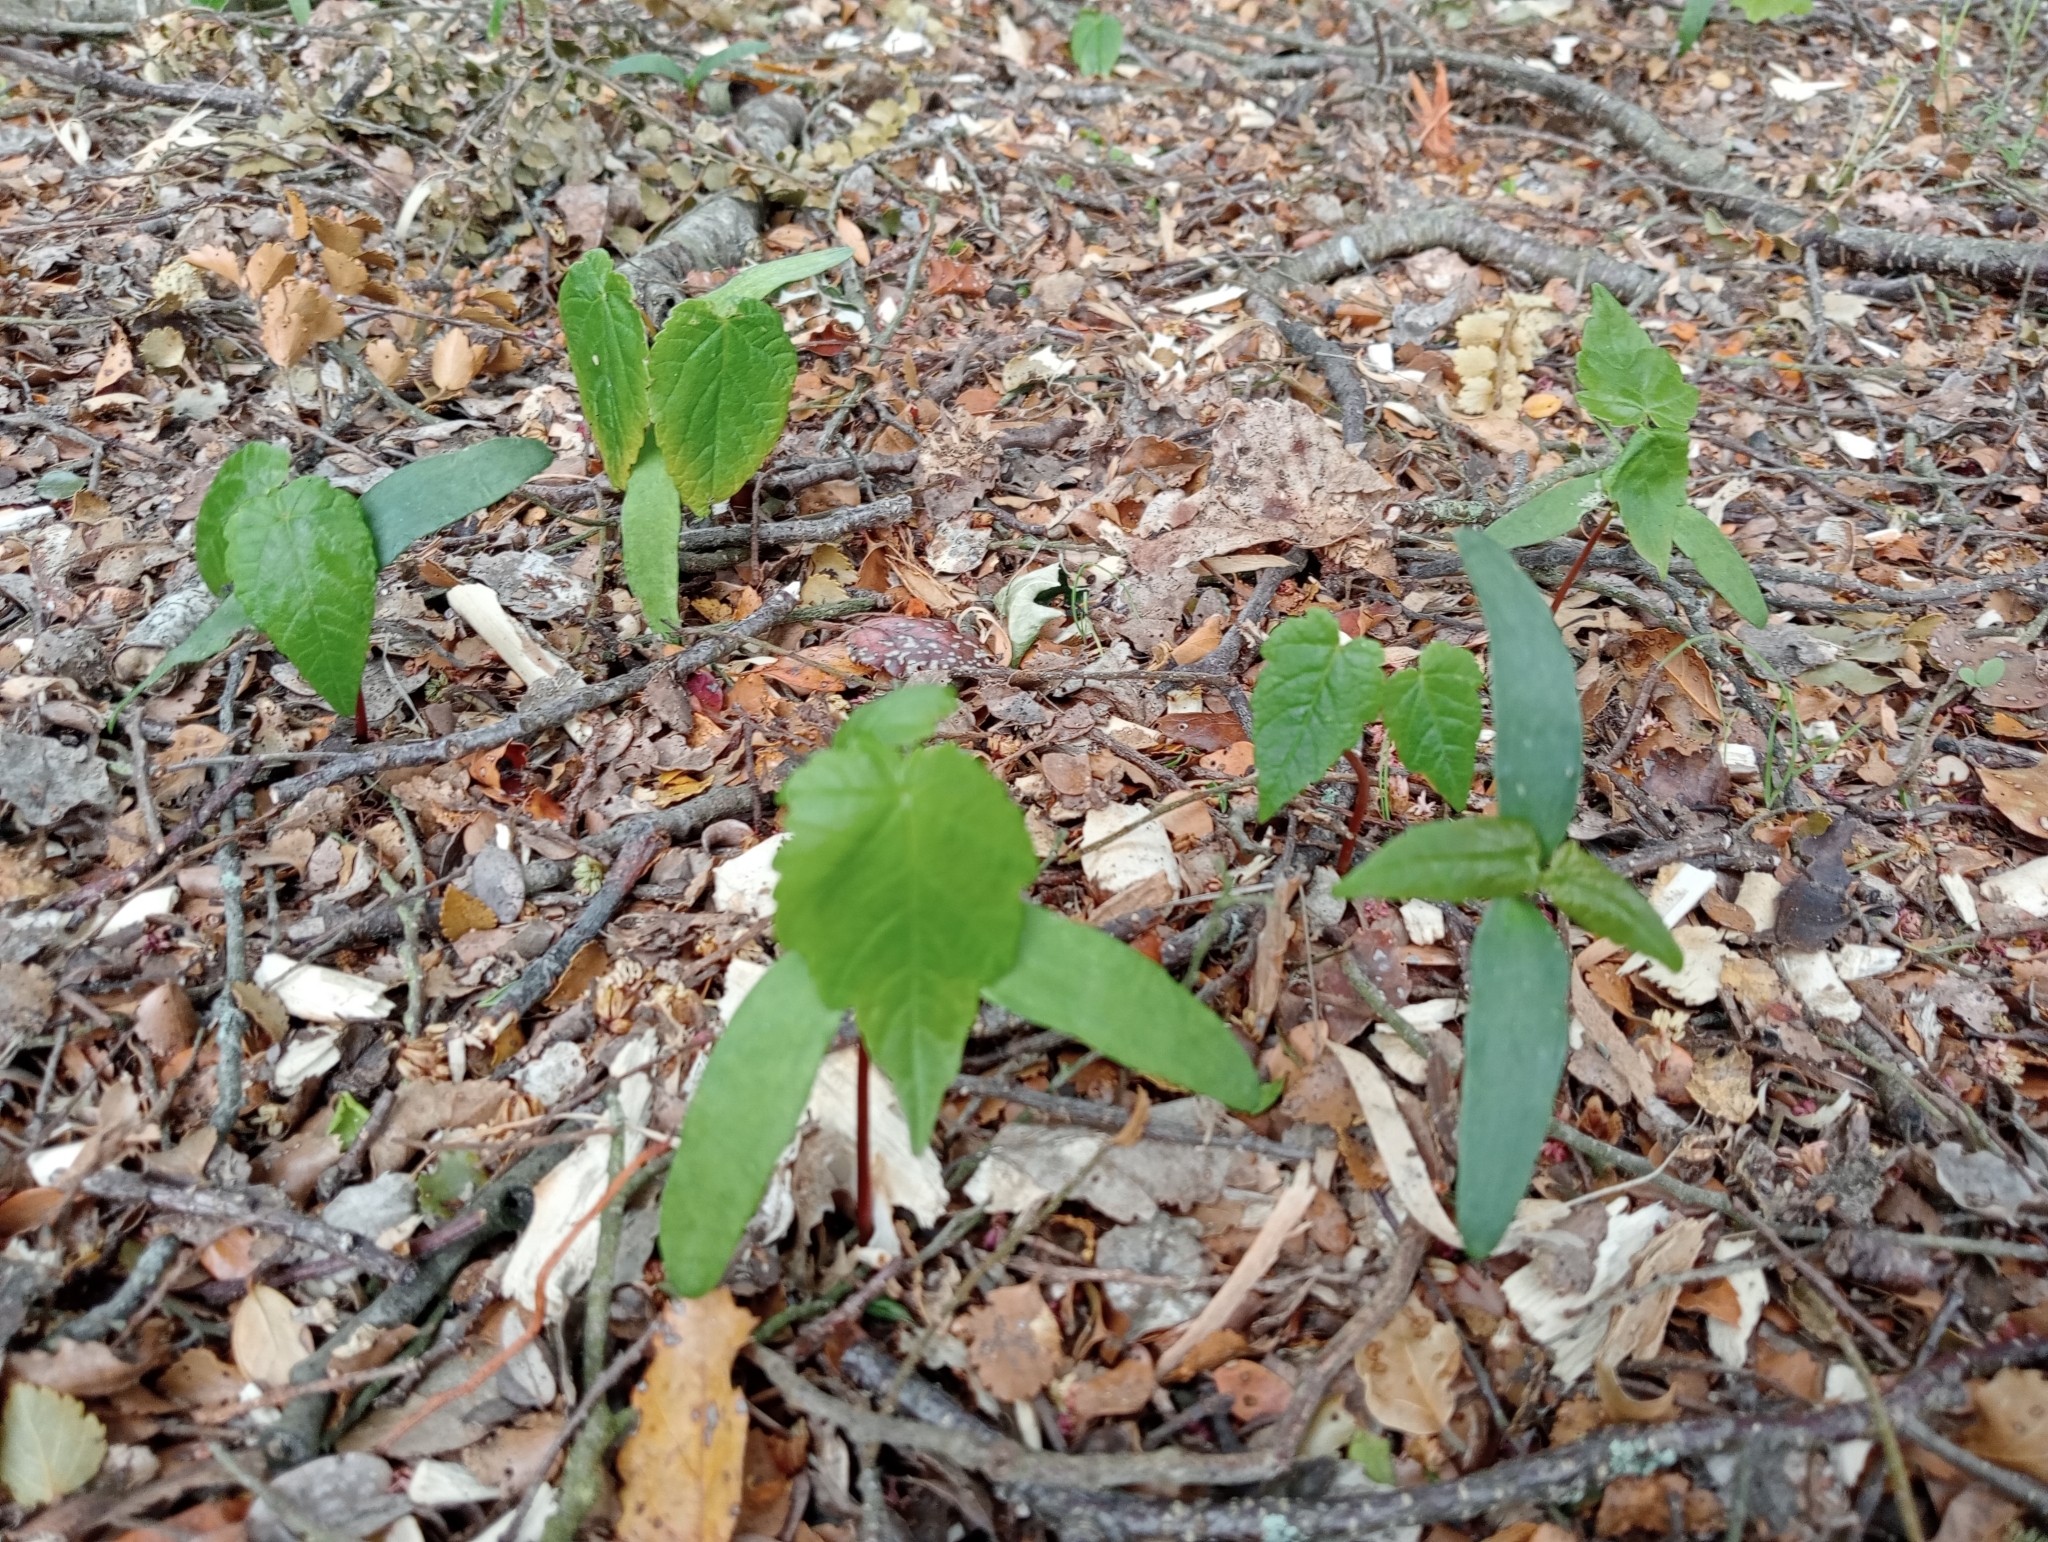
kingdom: Plantae
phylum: Tracheophyta
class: Magnoliopsida
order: Sapindales
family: Sapindaceae
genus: Acer
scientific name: Acer pseudoplatanus
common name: Sycamore
